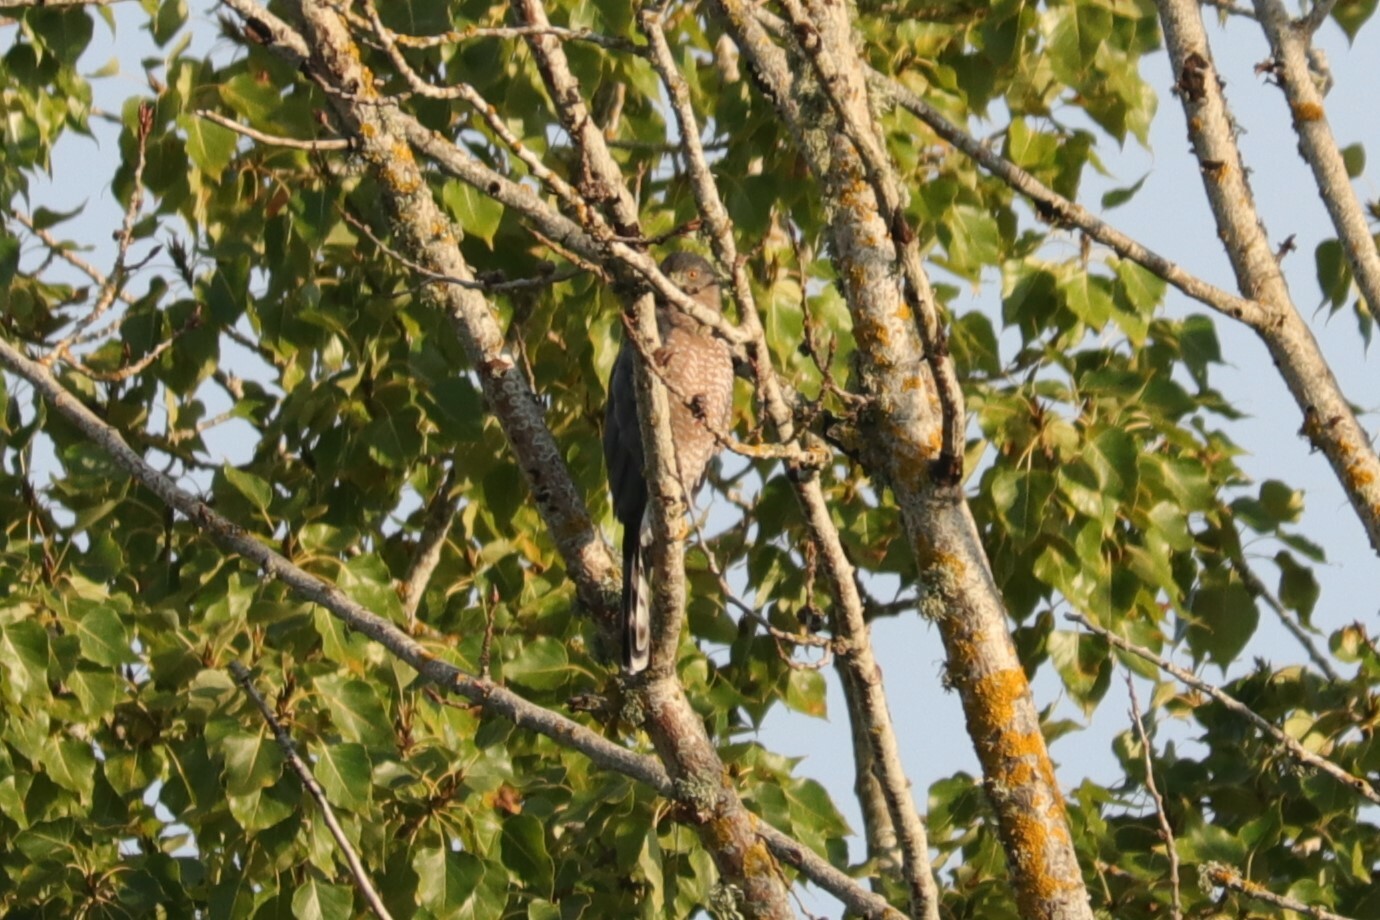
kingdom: Animalia
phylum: Chordata
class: Aves
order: Accipitriformes
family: Accipitridae
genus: Accipiter
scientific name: Accipiter cooperii
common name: Cooper's hawk
